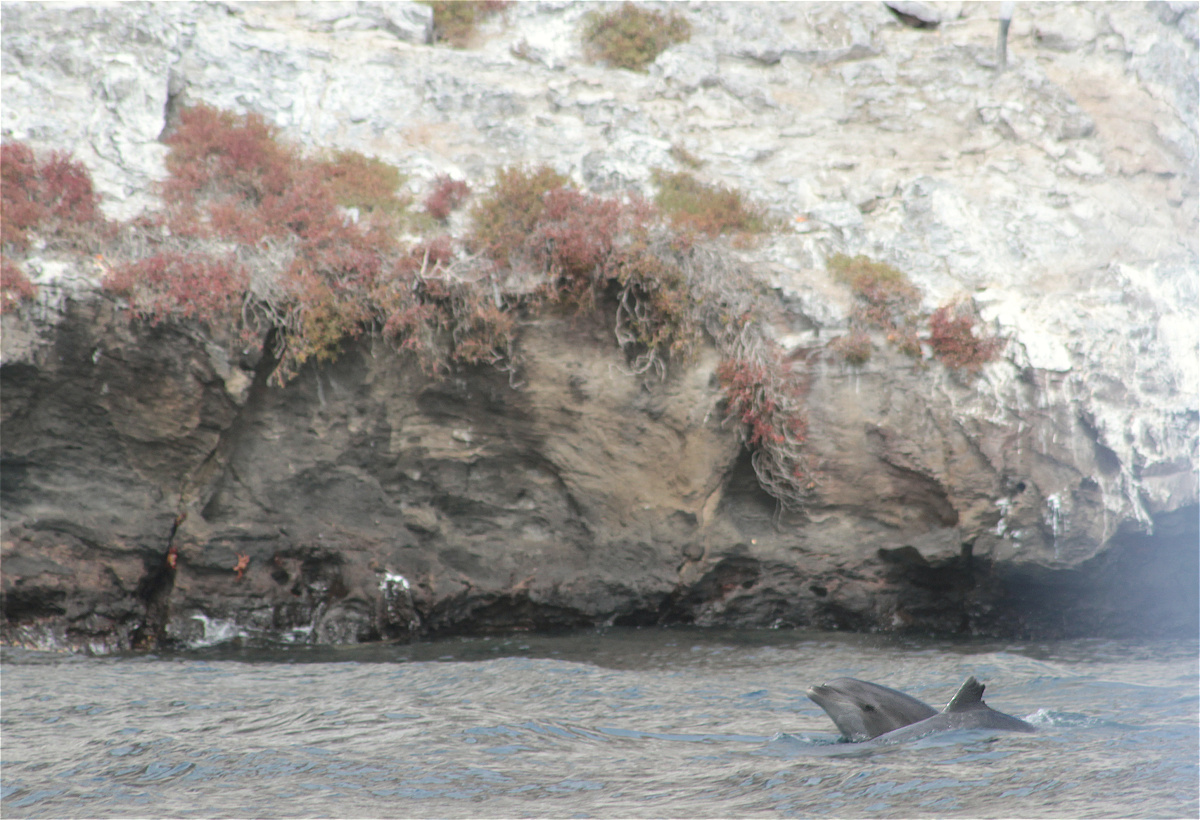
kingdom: Animalia
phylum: Chordata
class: Mammalia
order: Cetacea
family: Delphinidae
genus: Tursiops
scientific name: Tursiops truncatus
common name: Bottlenose dolphin
